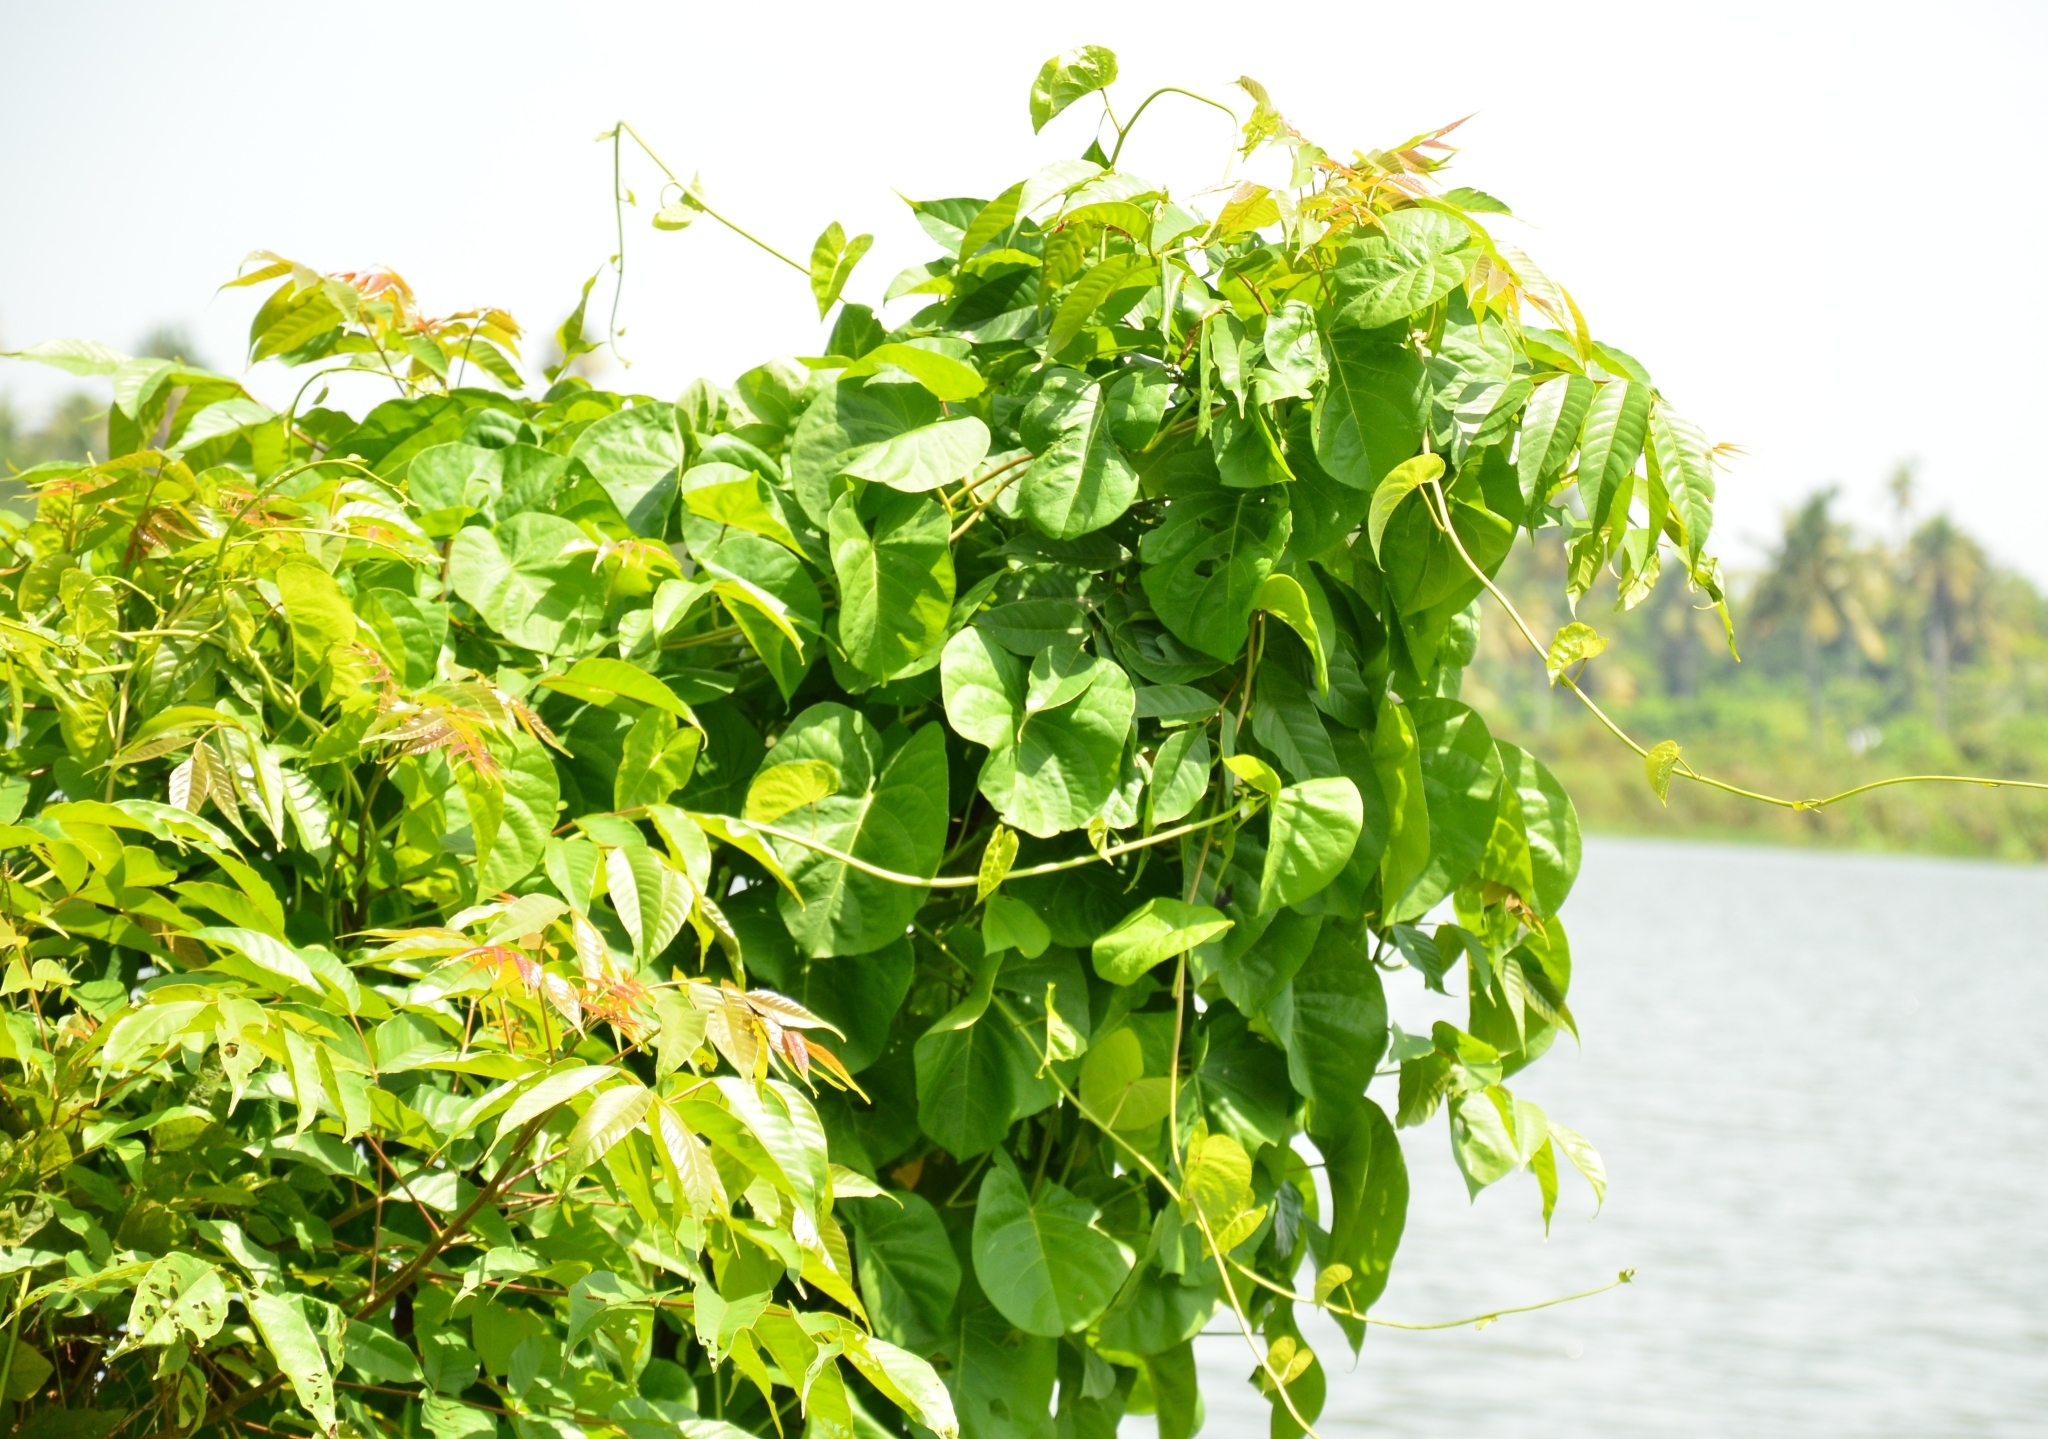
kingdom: Plantae
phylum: Tracheophyta
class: Magnoliopsida
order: Solanales
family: Convolvulaceae
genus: Ipomoea
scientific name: Ipomoea violacea
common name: Beach moonflower
